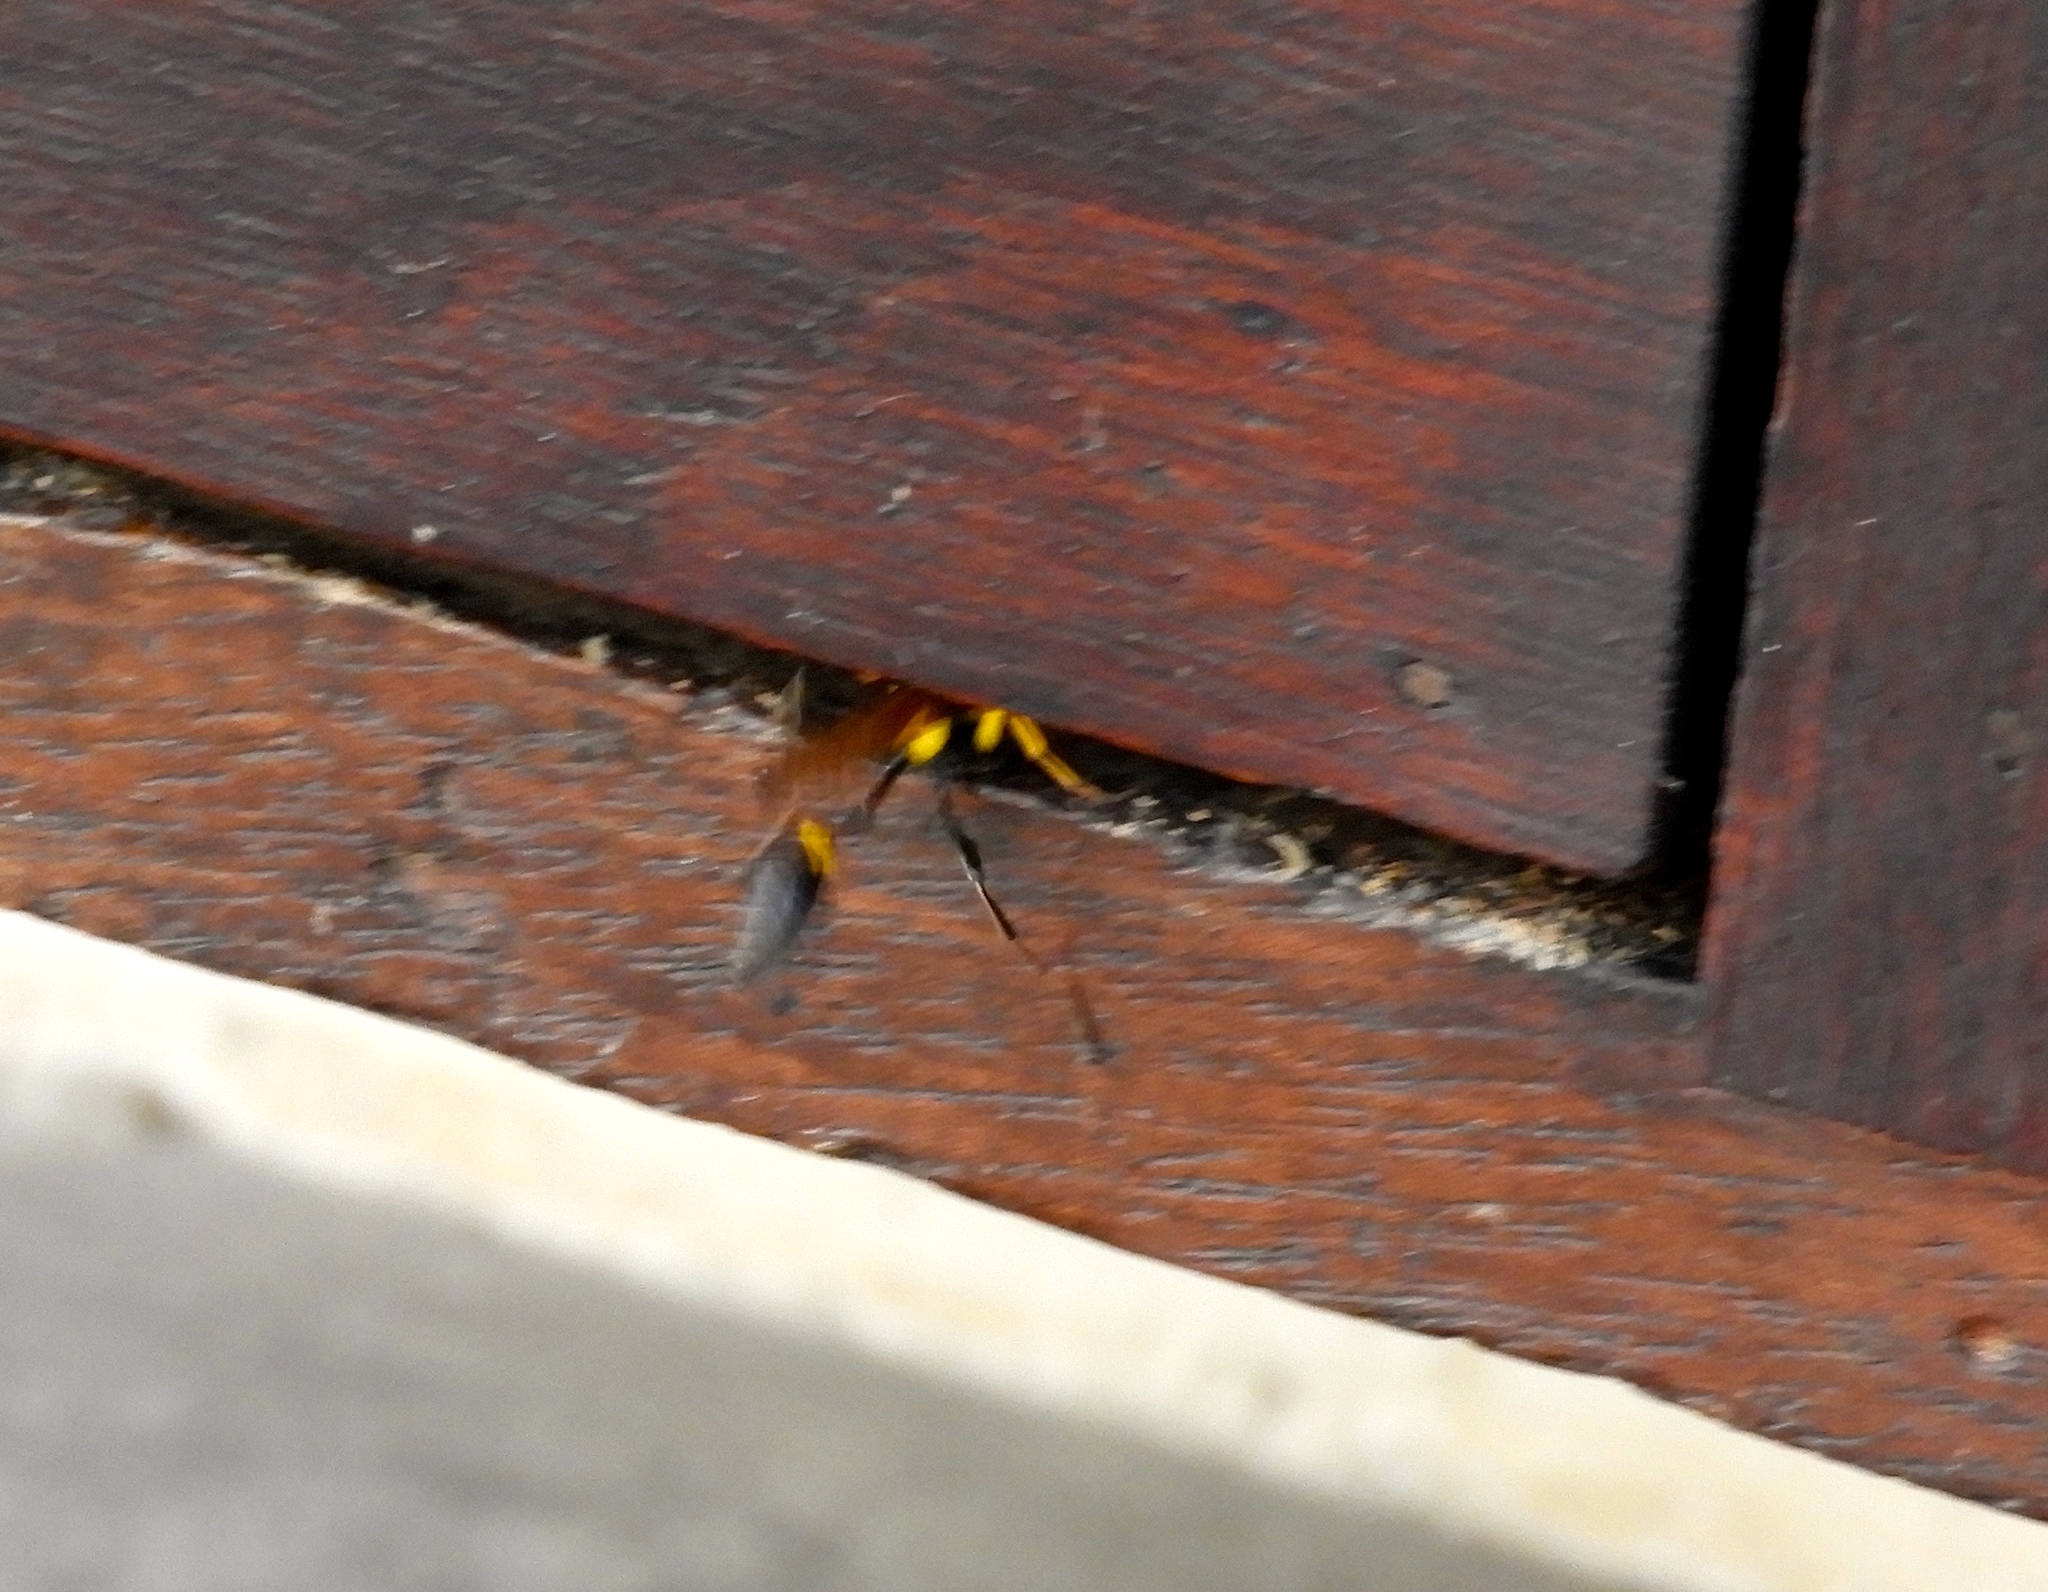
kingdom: Animalia
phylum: Arthropoda
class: Insecta
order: Hymenoptera
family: Sphecidae
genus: Sceliphron
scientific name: Sceliphron assimile
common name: Clayman's mud dauber
